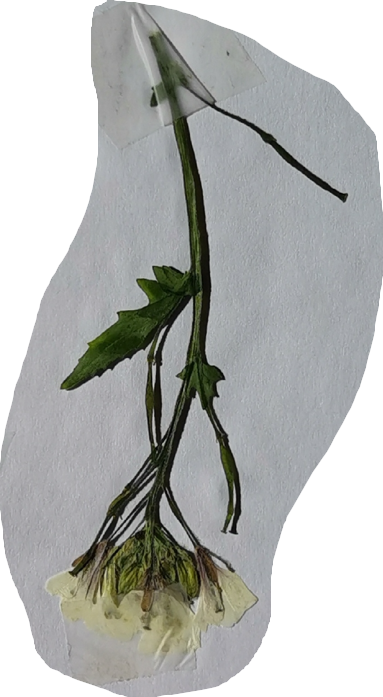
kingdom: Plantae
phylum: Tracheophyta
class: Magnoliopsida
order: Brassicales
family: Brassicaceae
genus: Diplotaxis
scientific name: Diplotaxis erucoides
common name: White rocket
